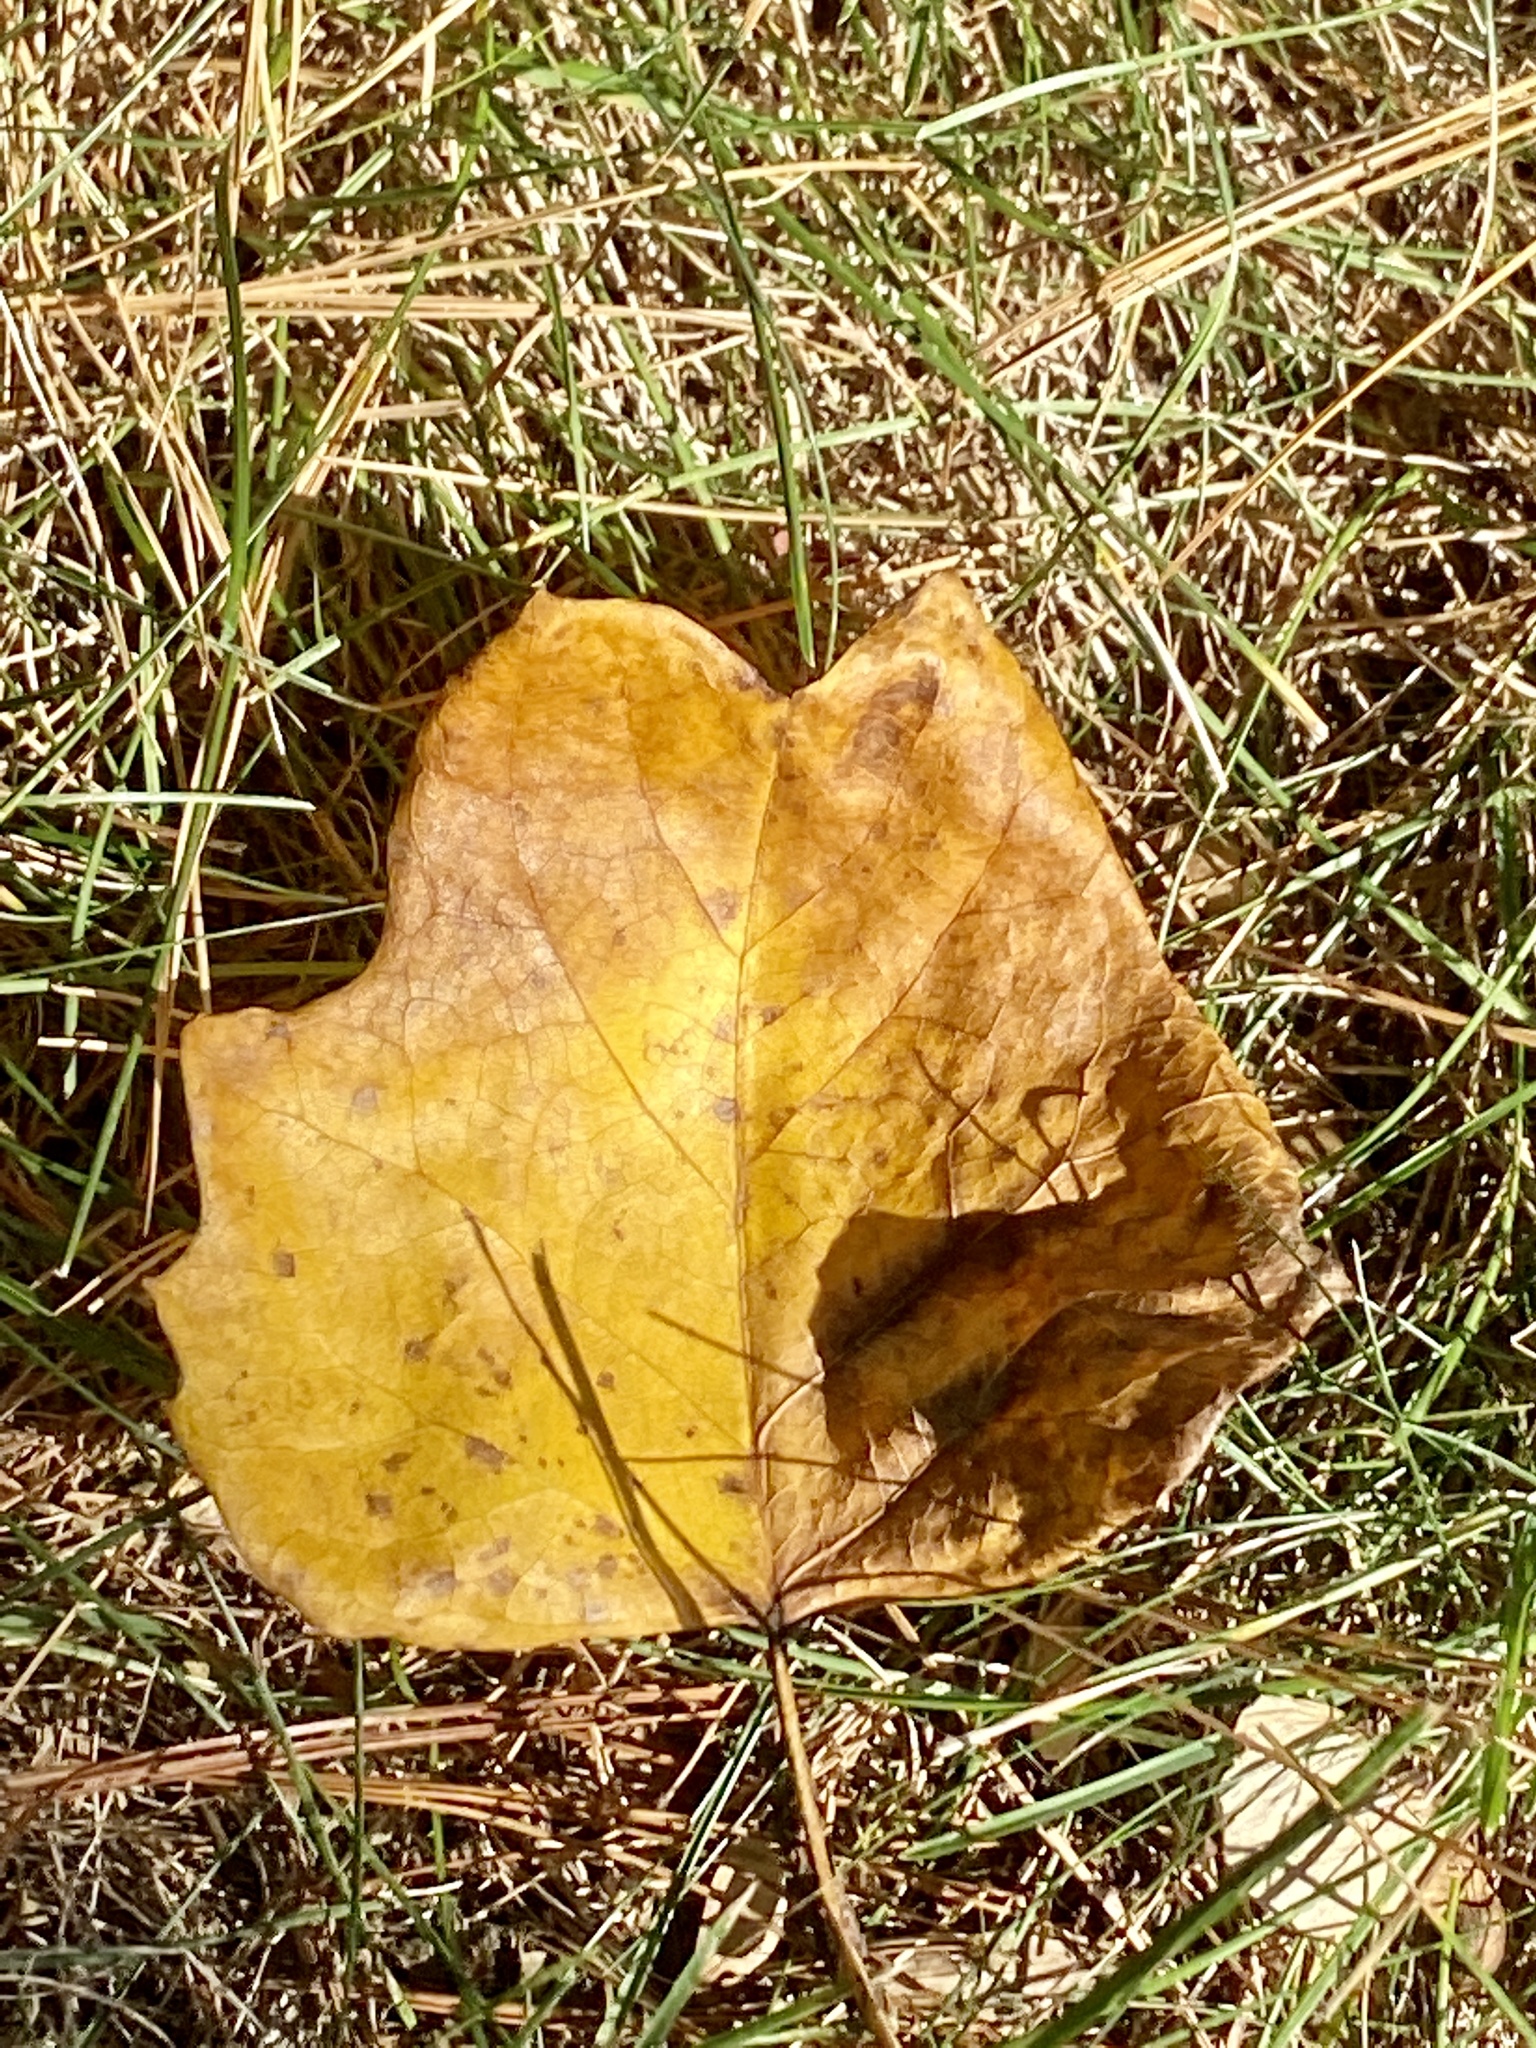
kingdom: Plantae
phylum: Tracheophyta
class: Magnoliopsida
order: Magnoliales
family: Magnoliaceae
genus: Liriodendron
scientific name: Liriodendron tulipifera
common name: Tulip tree
